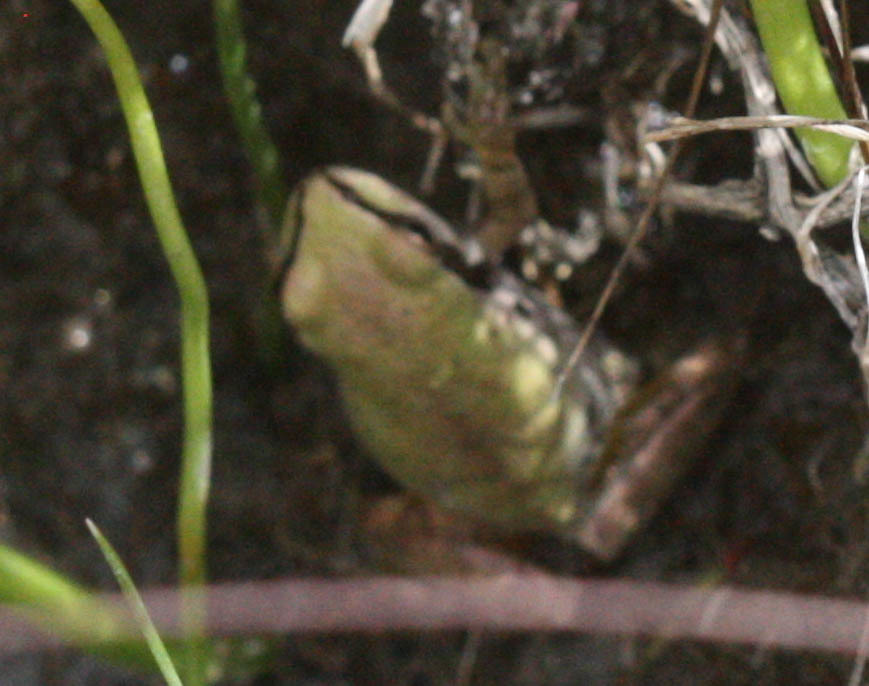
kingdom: Animalia
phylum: Chordata
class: Amphibia
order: Anura
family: Hylidae
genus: Pseudacris
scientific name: Pseudacris regilla
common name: Pacific chorus frog
